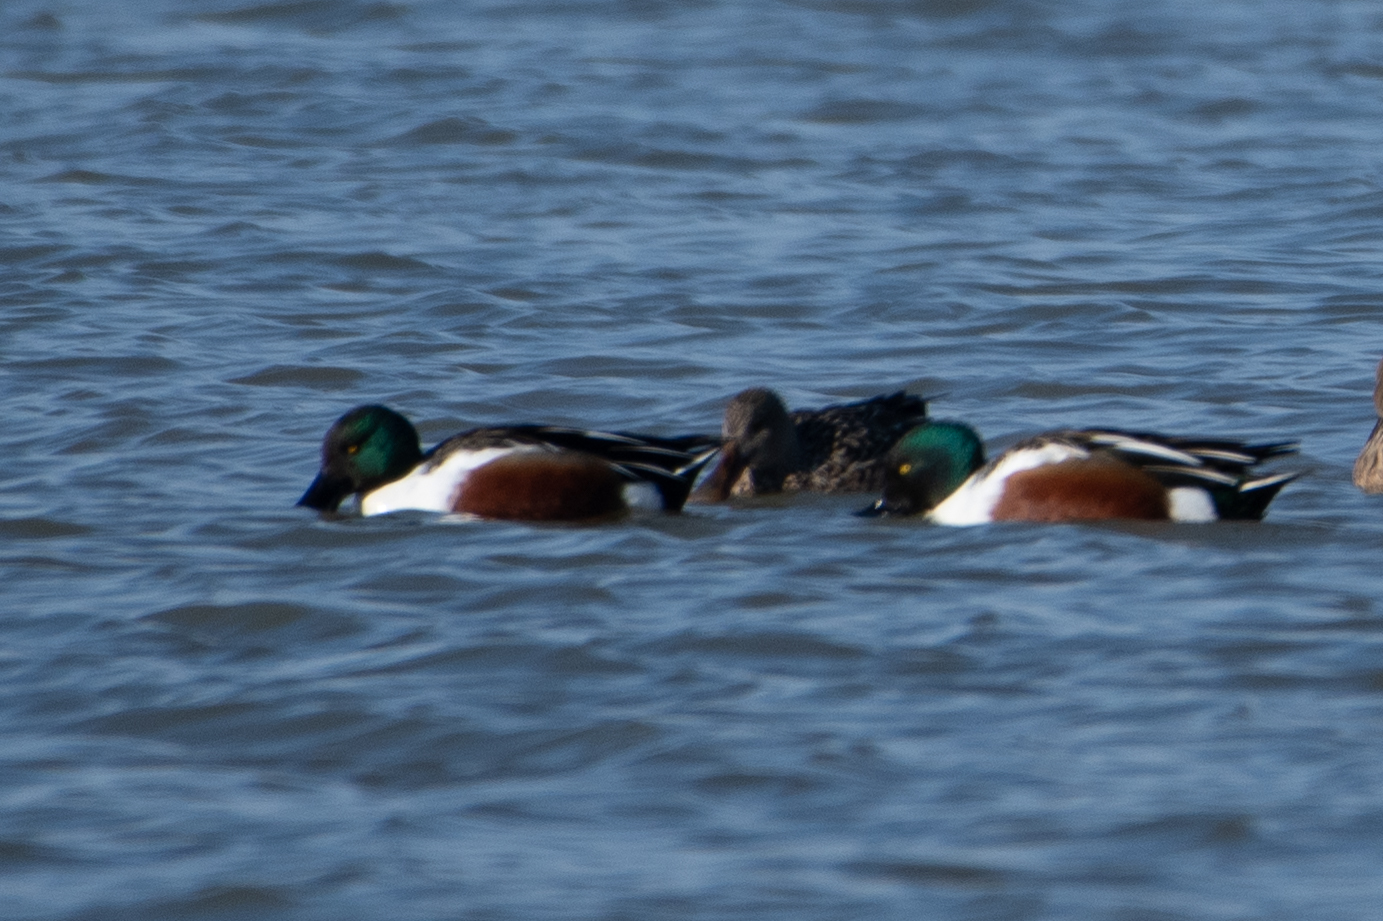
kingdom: Animalia
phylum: Chordata
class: Aves
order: Anseriformes
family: Anatidae
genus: Spatula
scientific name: Spatula clypeata
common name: Northern shoveler
